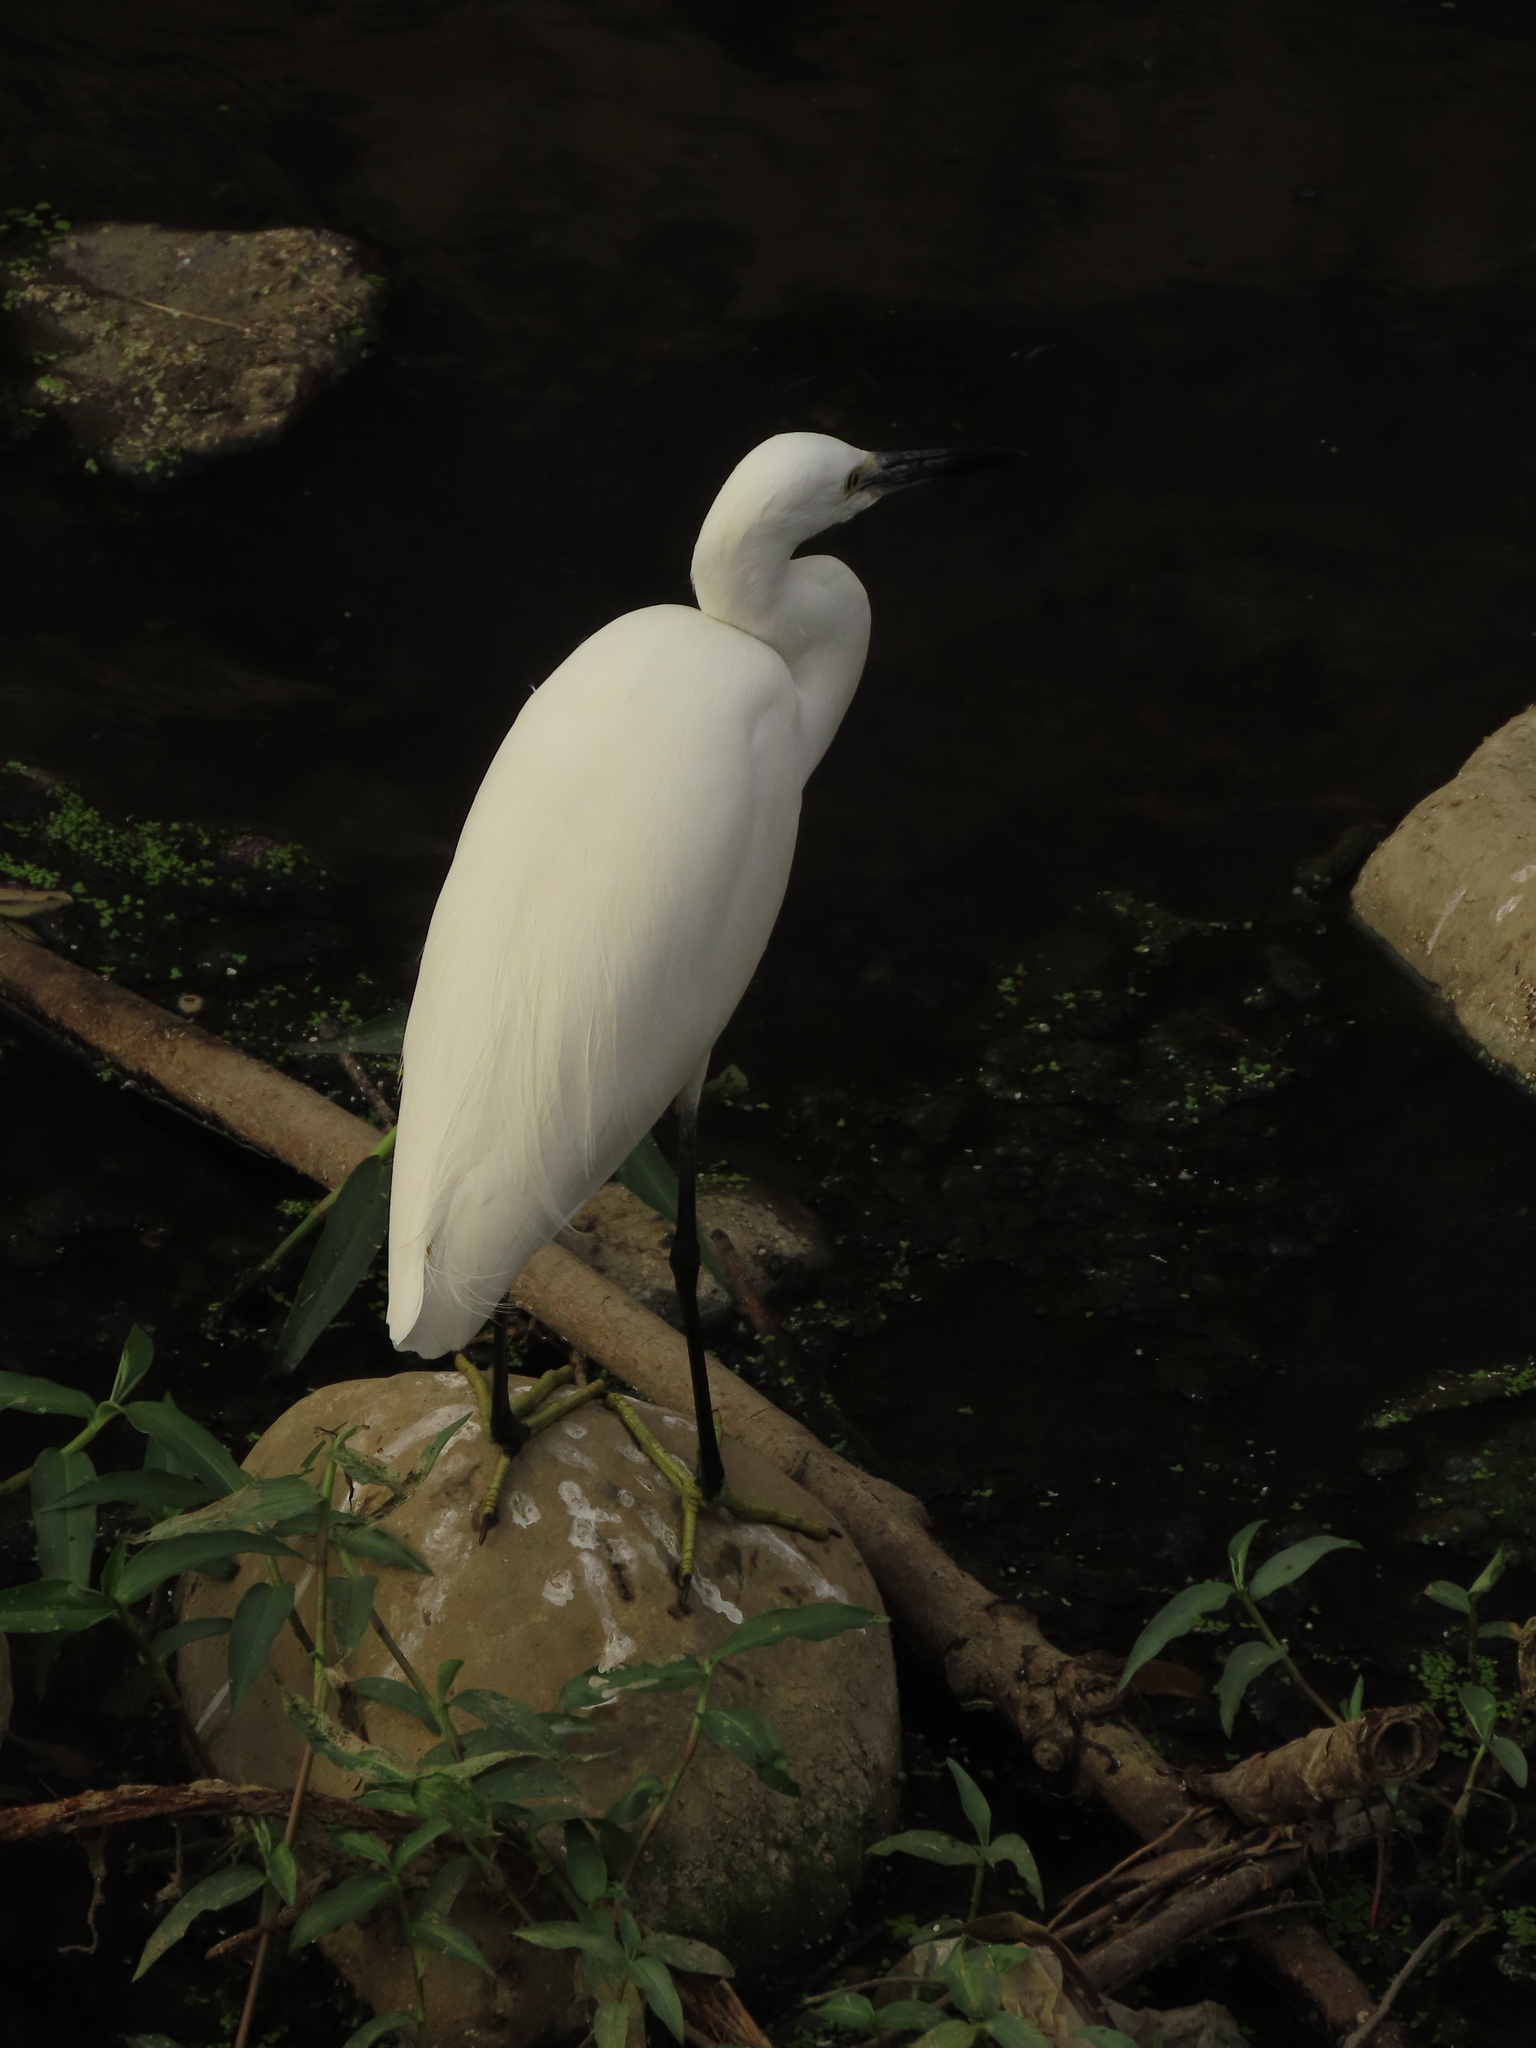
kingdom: Animalia
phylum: Chordata
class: Aves
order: Pelecaniformes
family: Ardeidae
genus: Egretta
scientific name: Egretta garzetta
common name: Little egret
